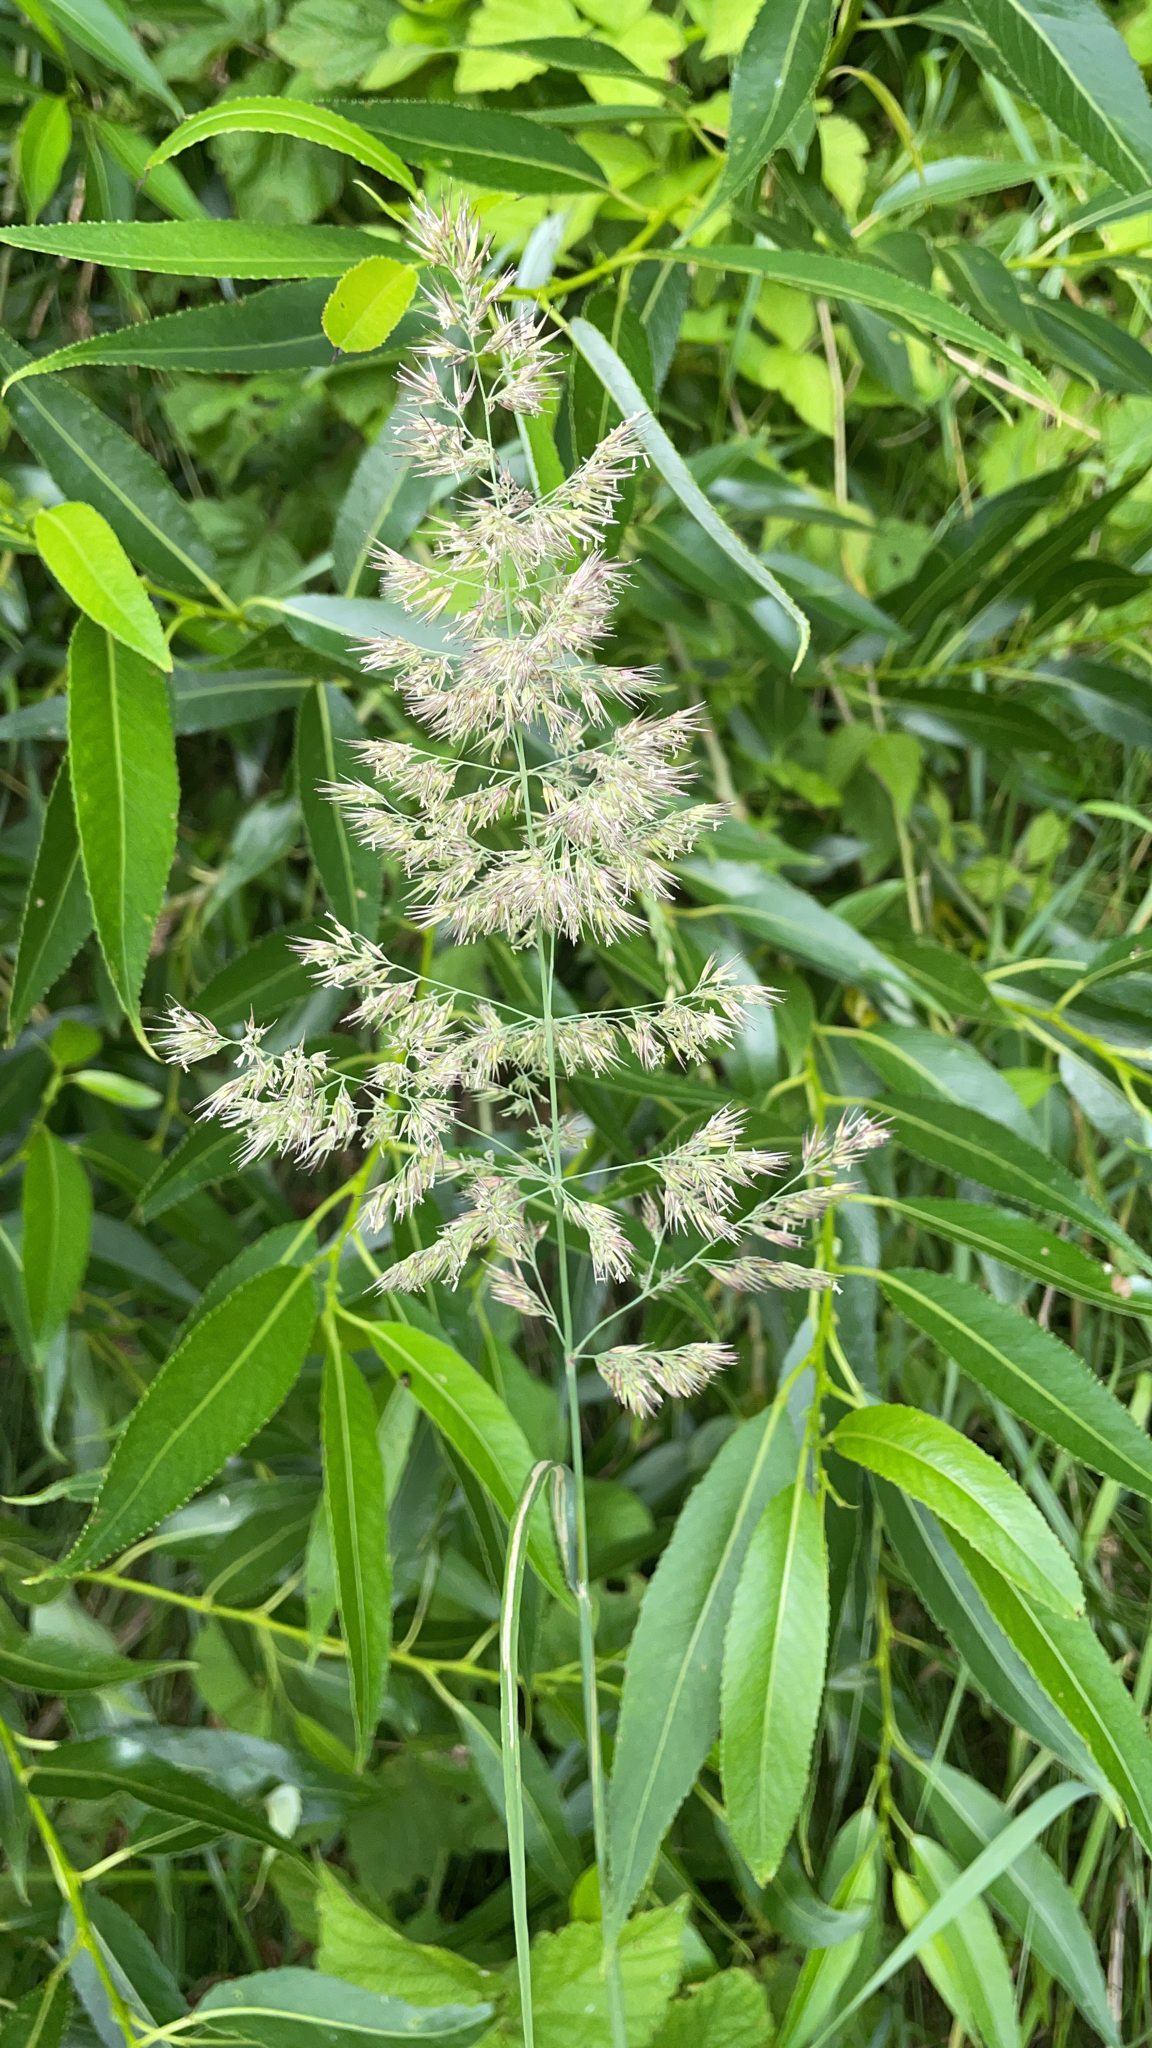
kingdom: Plantae
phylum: Tracheophyta
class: Liliopsida
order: Poales
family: Poaceae
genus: Calamagrostis
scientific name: Calamagrostis epigejos
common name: Wood small-reed
